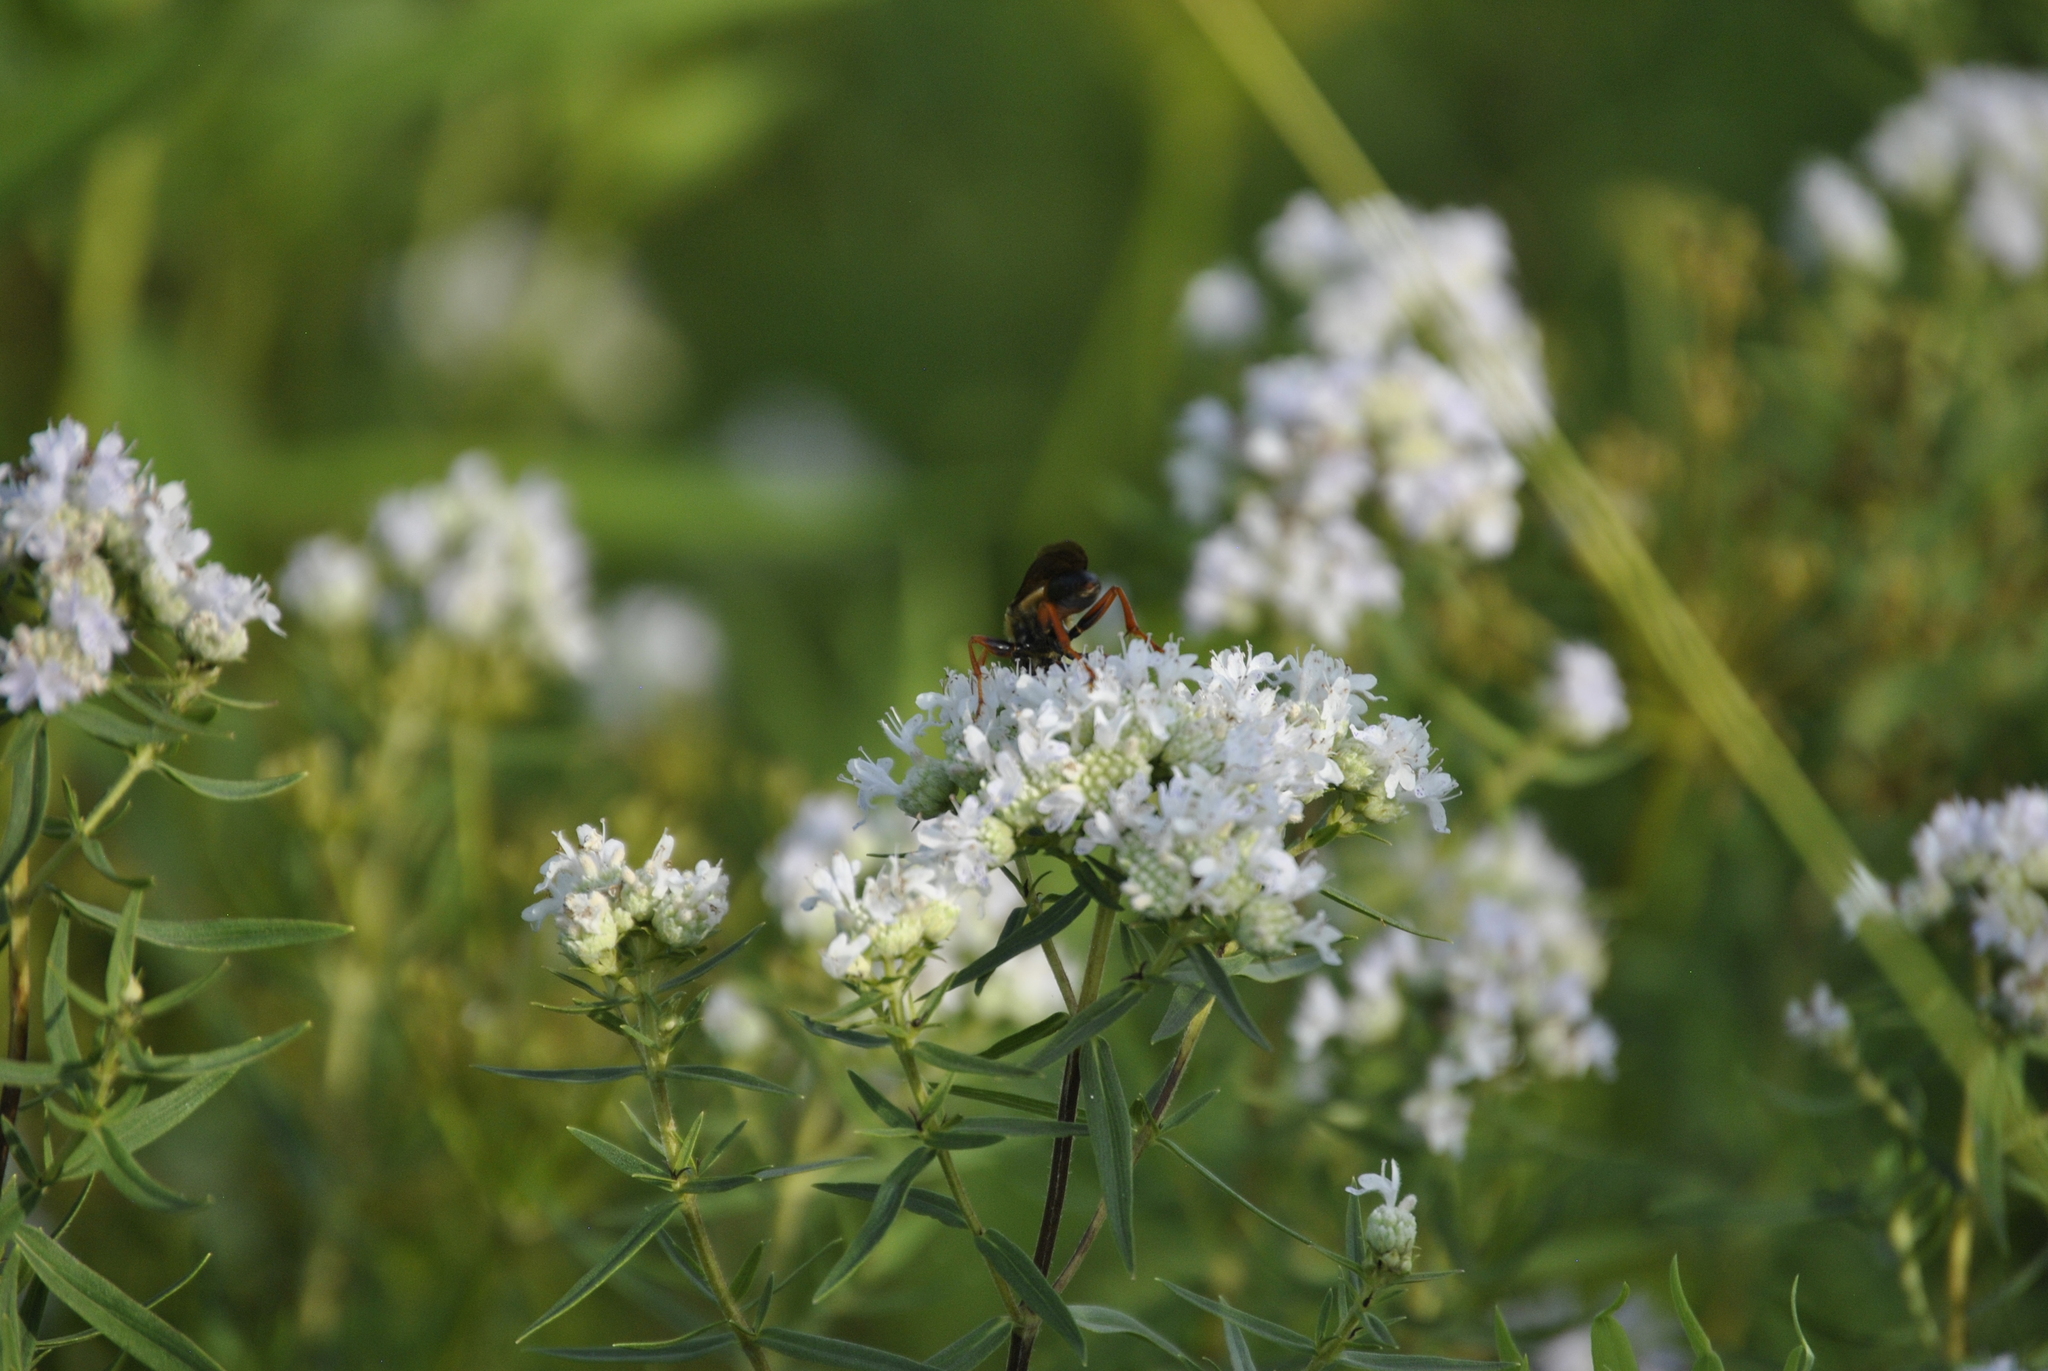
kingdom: Animalia
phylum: Arthropoda
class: Insecta
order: Hymenoptera
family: Sphecidae
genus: Sphex
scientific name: Sphex ichneumoneus
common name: Great golden digger wasp
